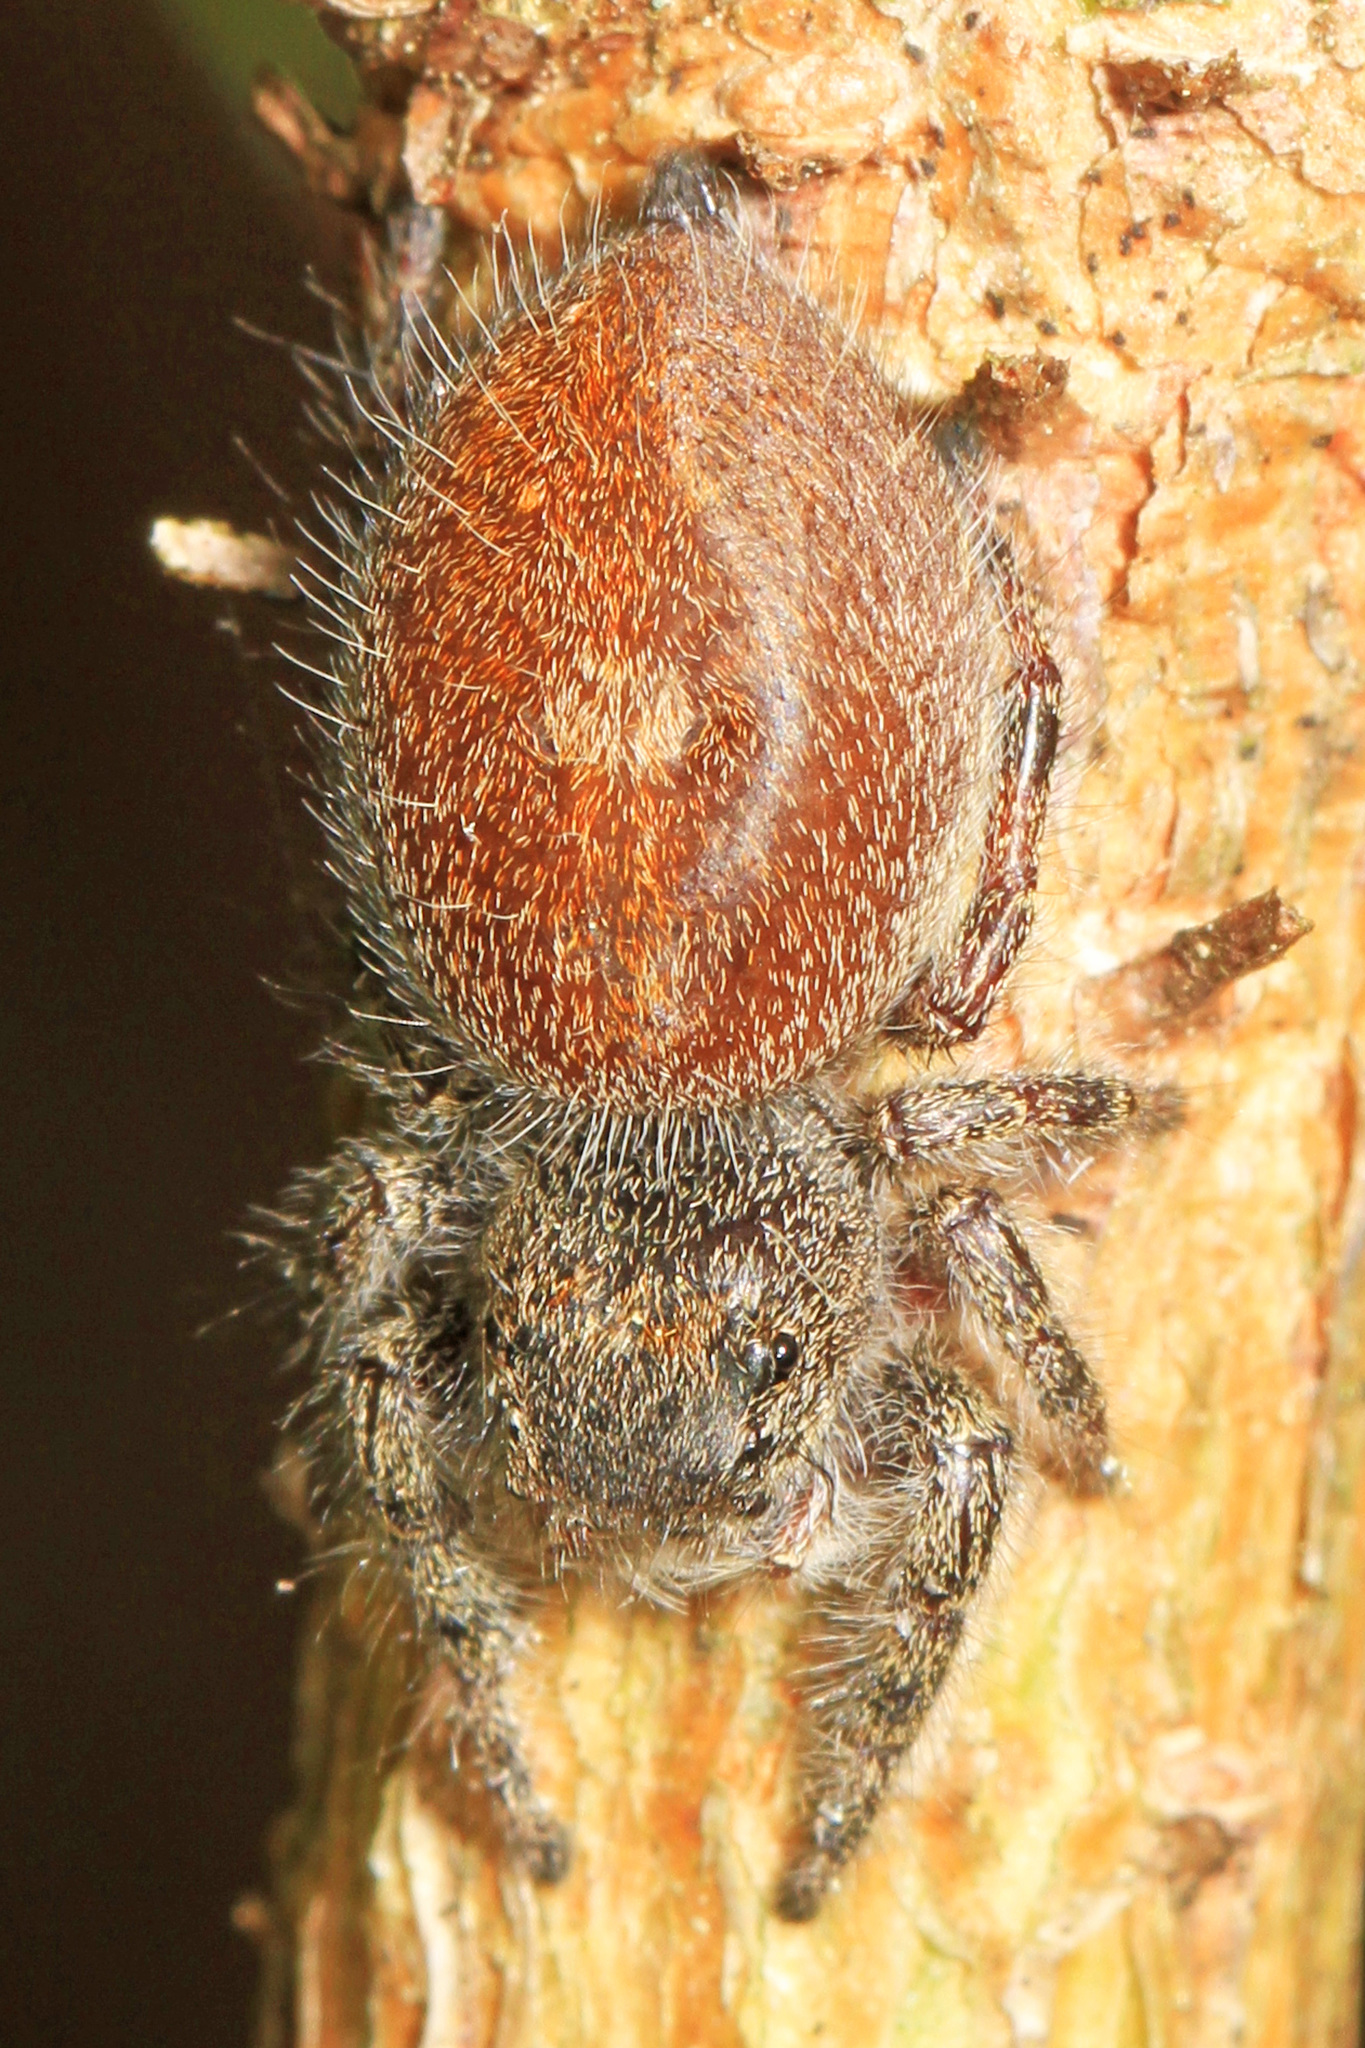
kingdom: Animalia
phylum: Arthropoda
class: Arachnida
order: Araneae
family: Salticidae
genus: Phidippus
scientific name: Phidippus princeps
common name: Grayish jumping spider
